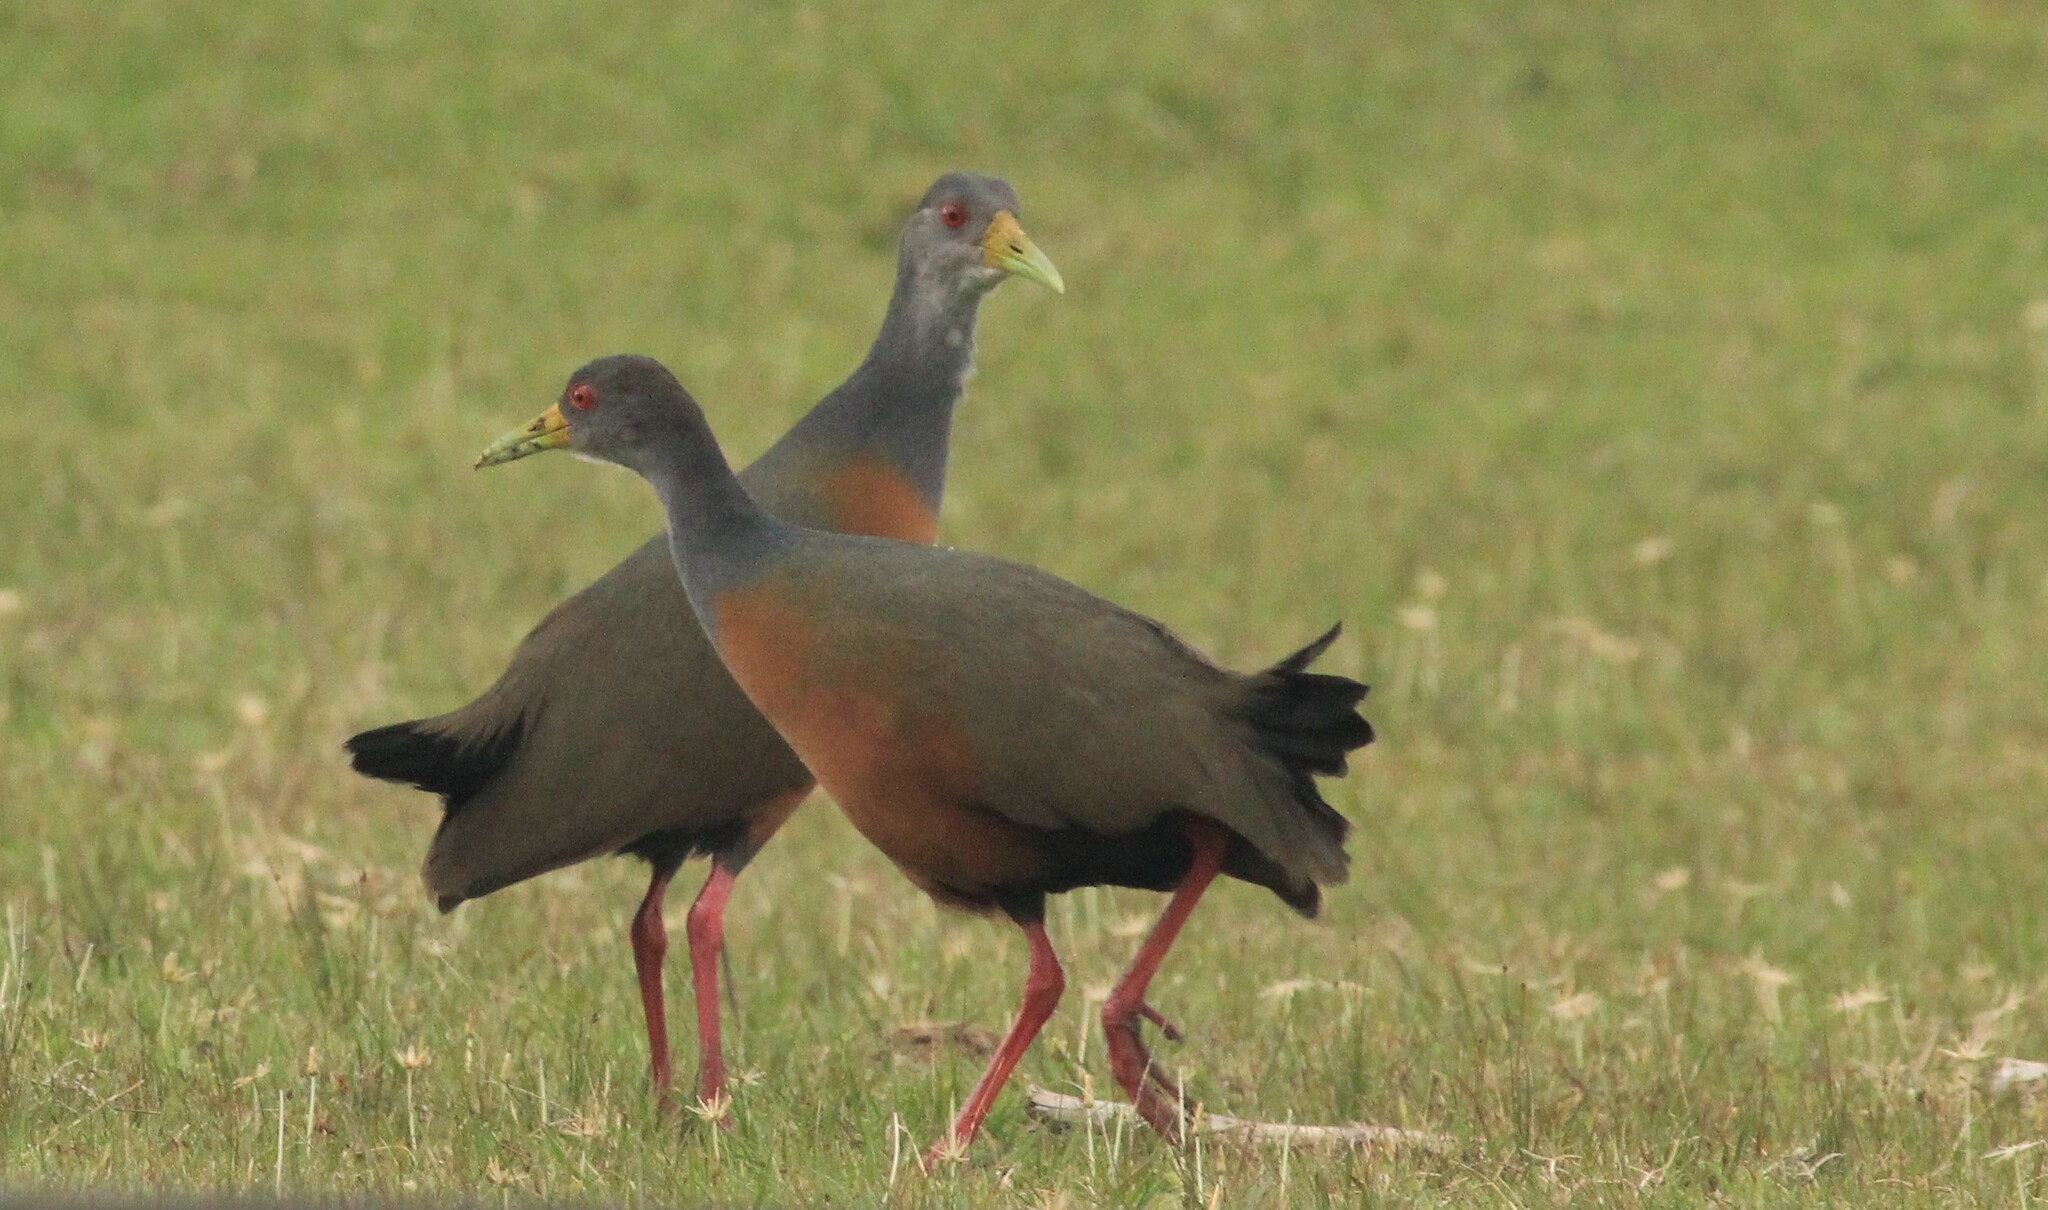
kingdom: Animalia
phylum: Chordata
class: Aves
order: Gruiformes
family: Rallidae
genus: Aramides
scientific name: Aramides cajanea
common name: Gray-necked wood-rail
